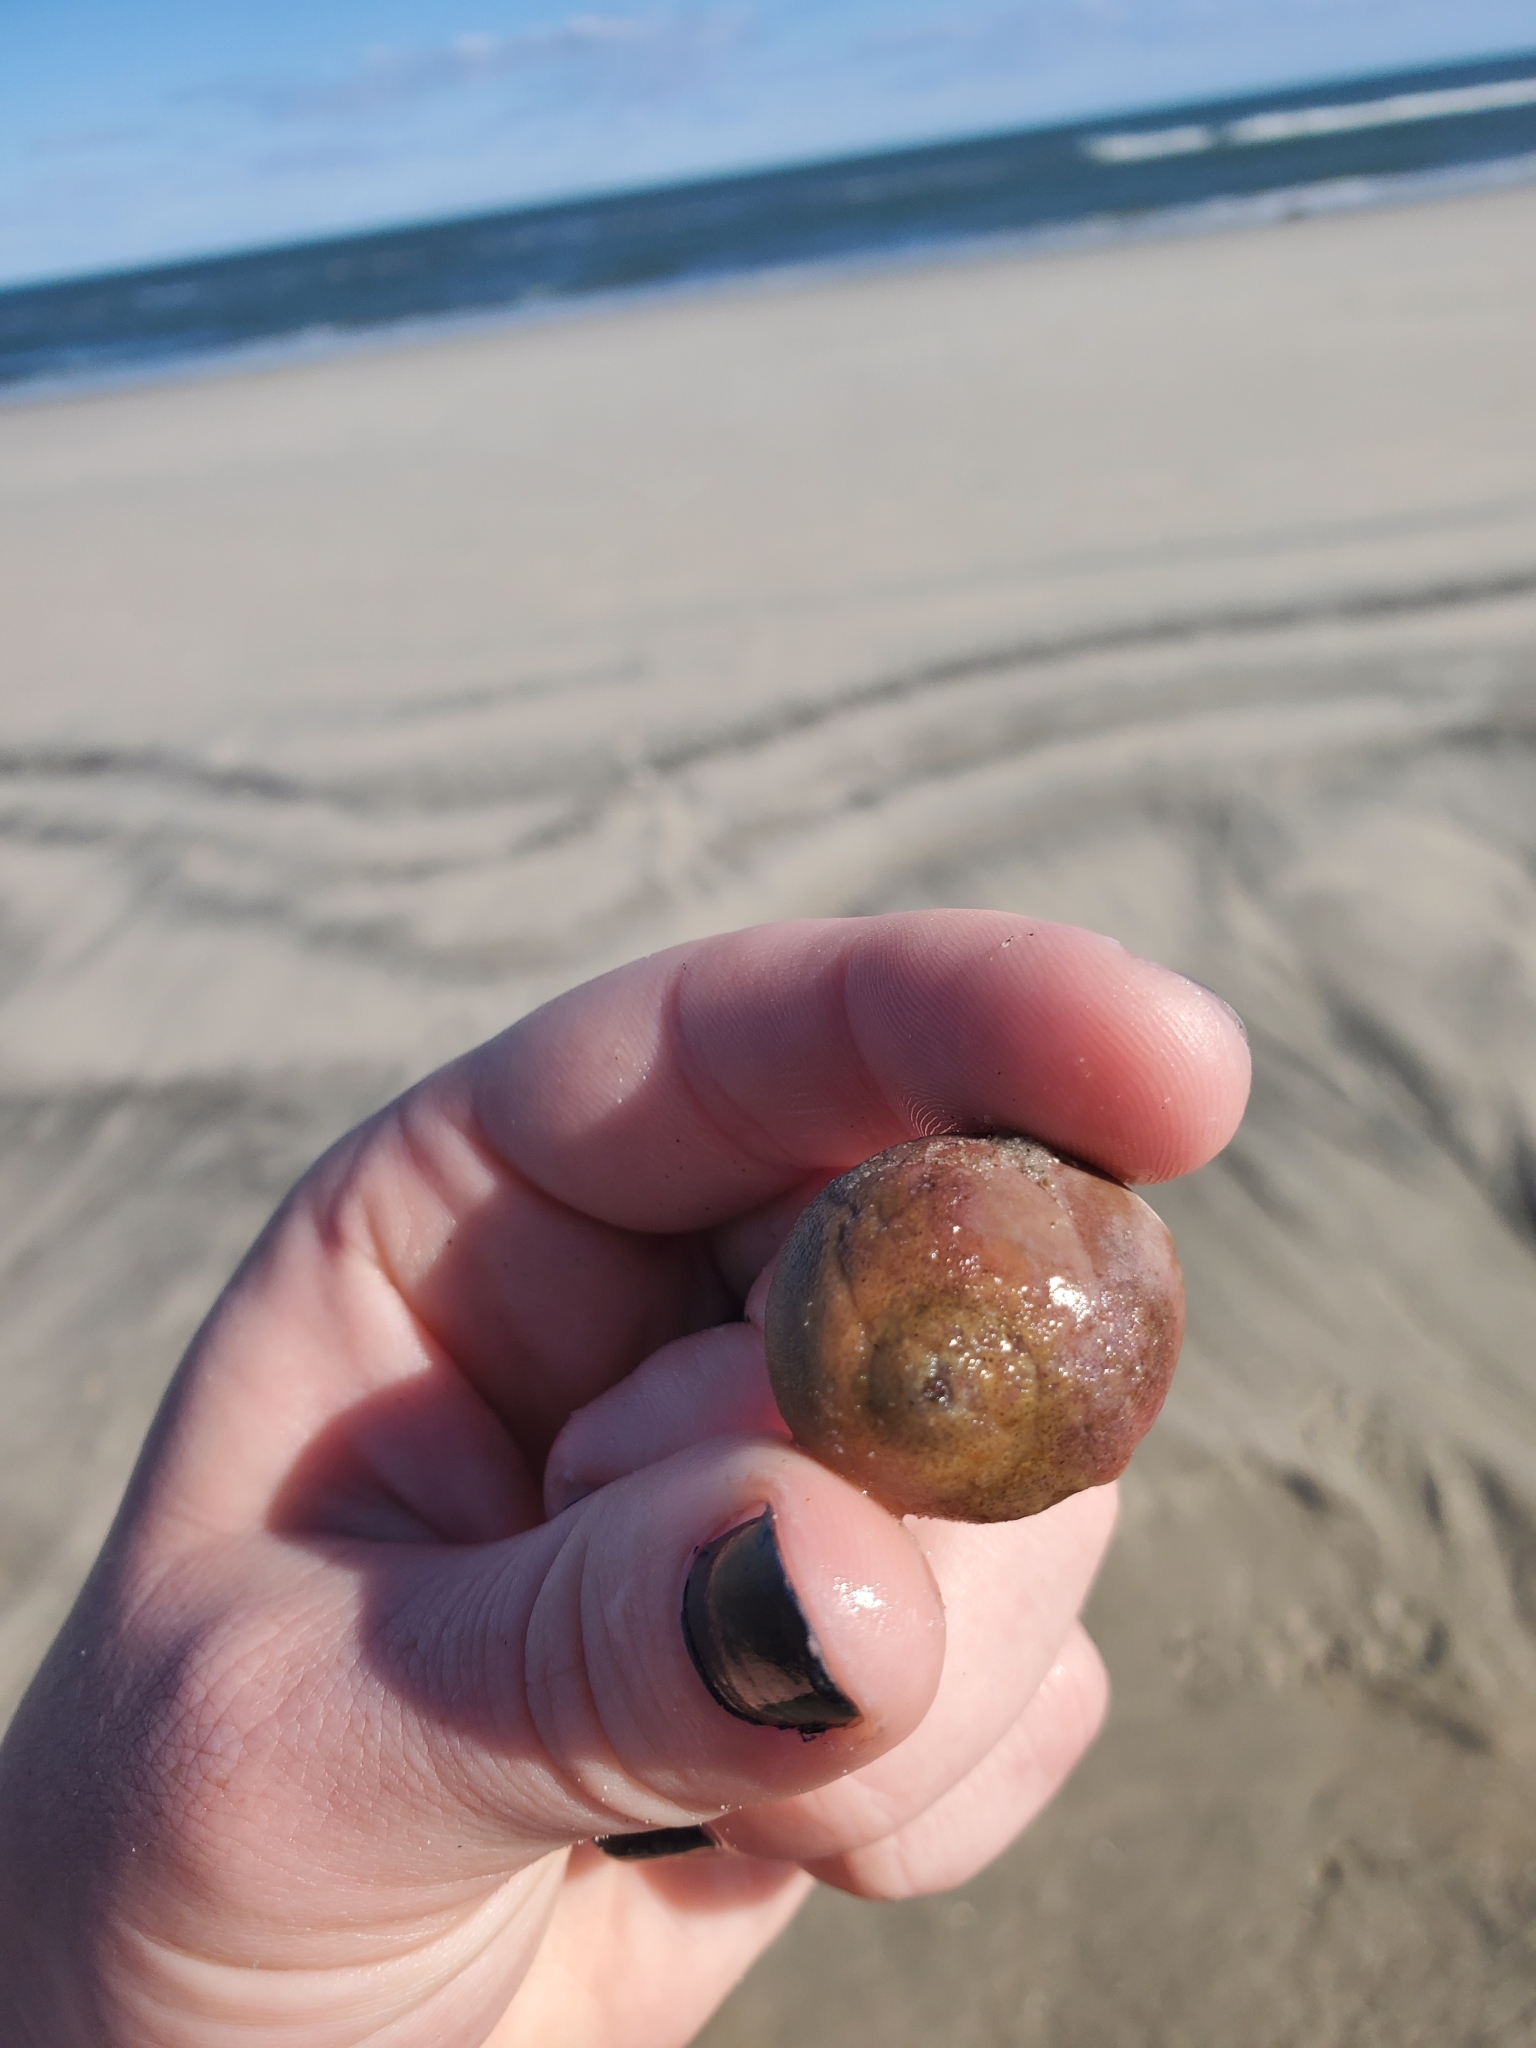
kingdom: Animalia
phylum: Arthropoda
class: Malacostraca
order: Decapoda
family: Paguridae
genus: Pagurus
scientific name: Pagurus longicarpus
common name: Long-armed hermit crab
